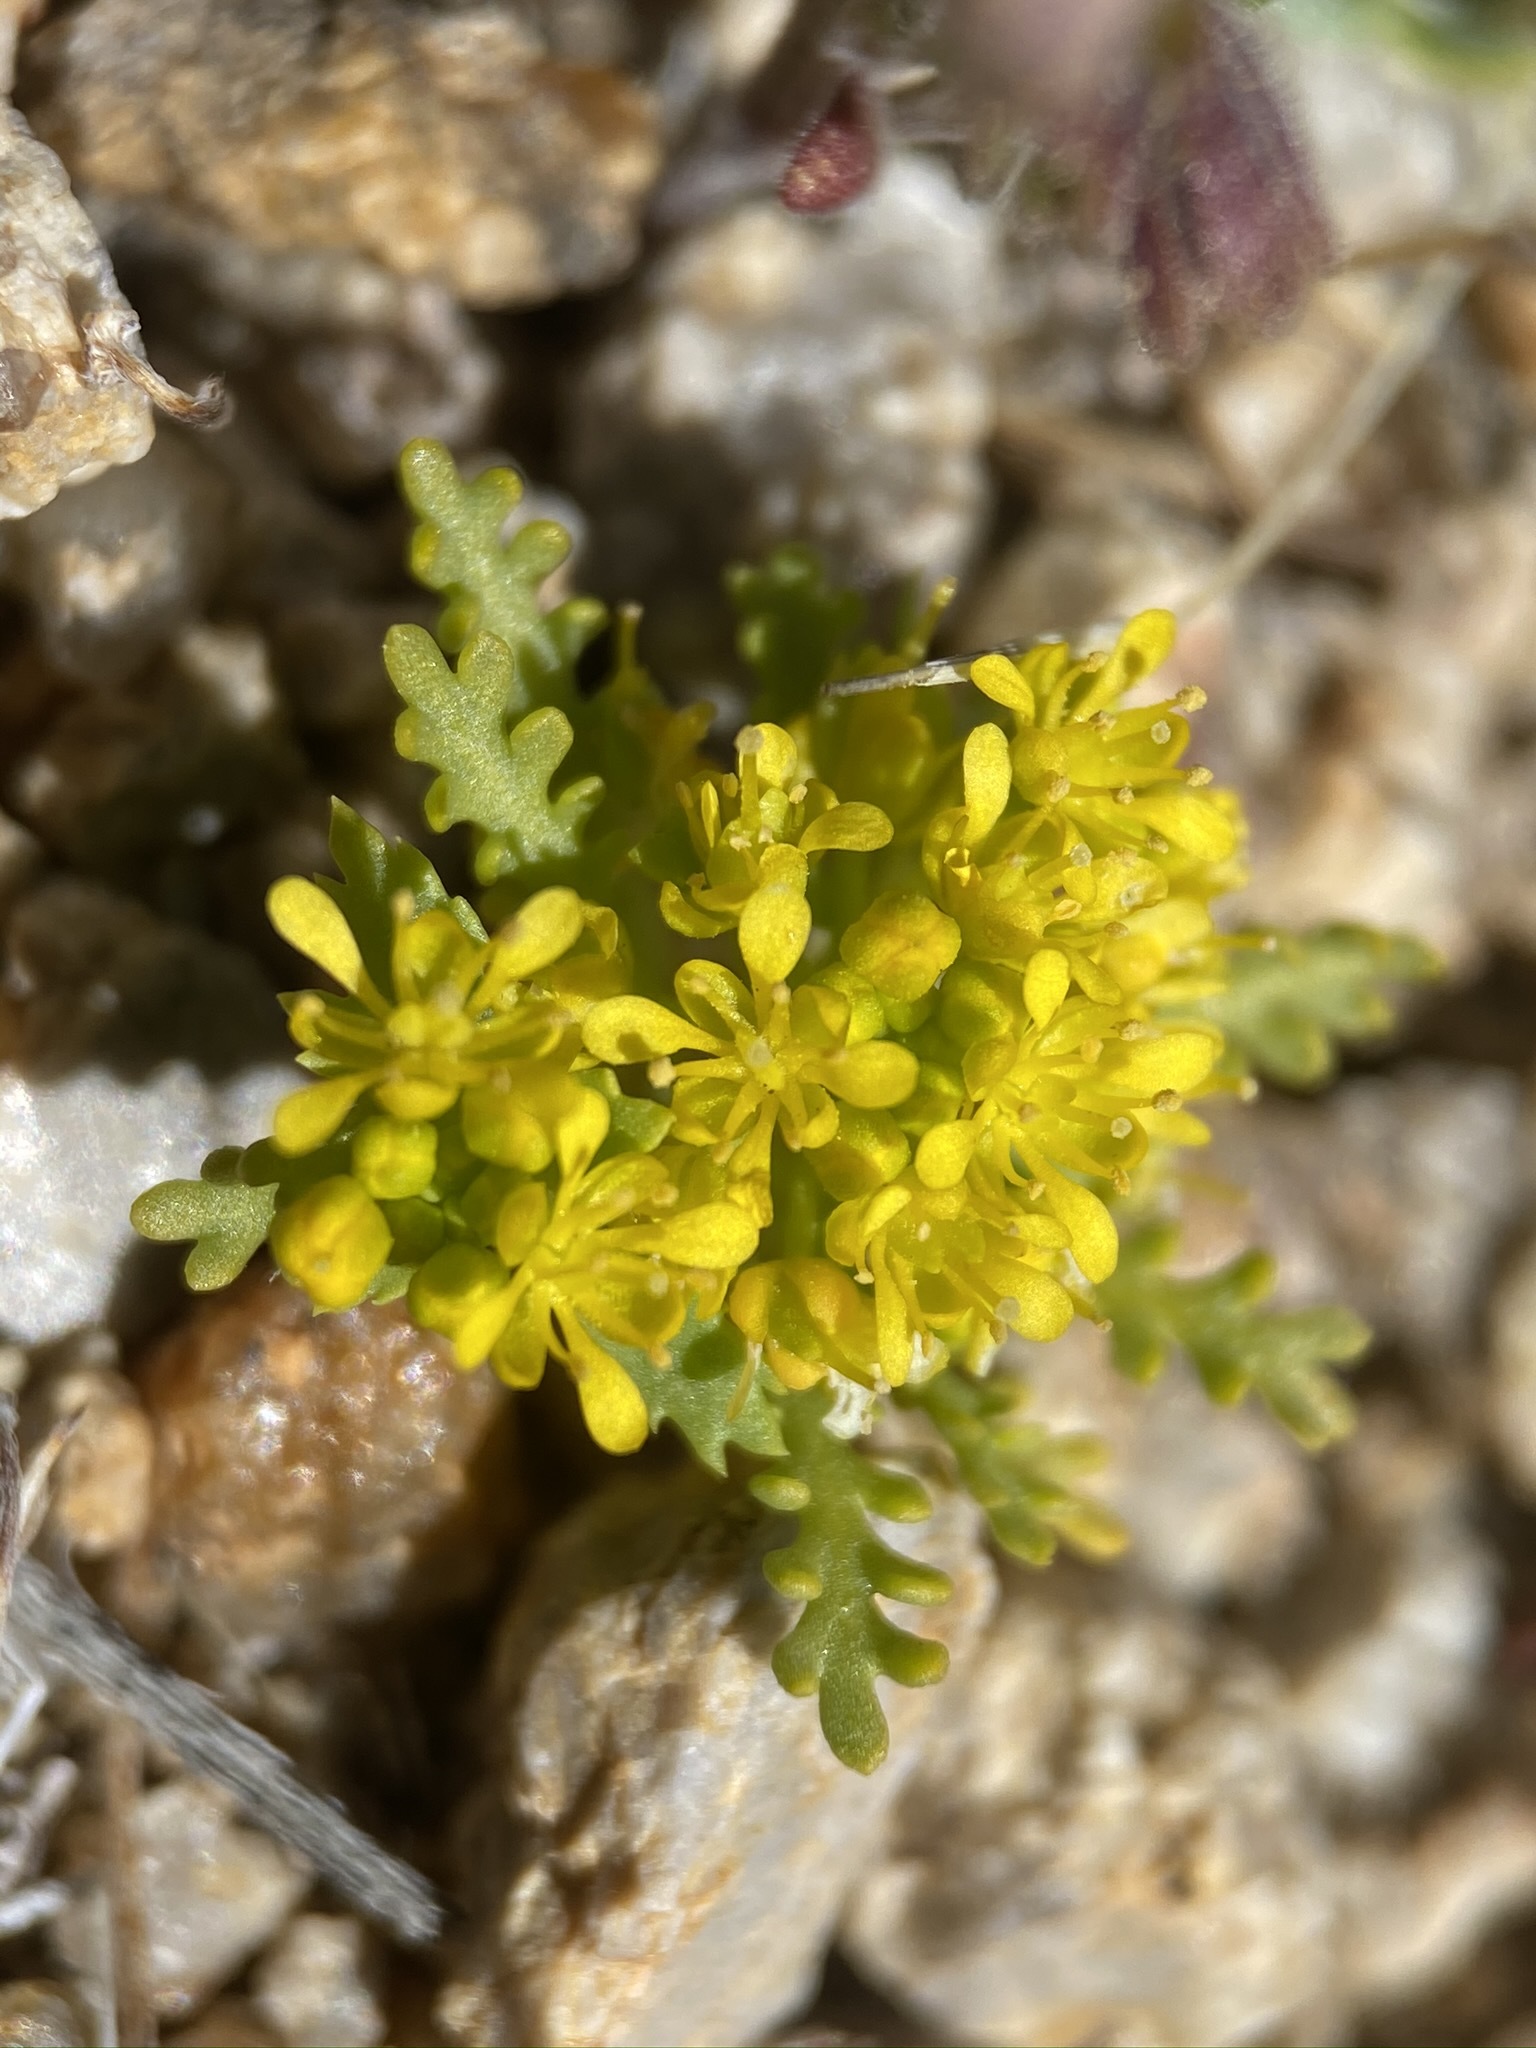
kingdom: Plantae
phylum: Tracheophyta
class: Magnoliopsida
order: Brassicales
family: Brassicaceae
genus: Lepidium
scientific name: Lepidium flavum
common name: Yellow pepperwort
